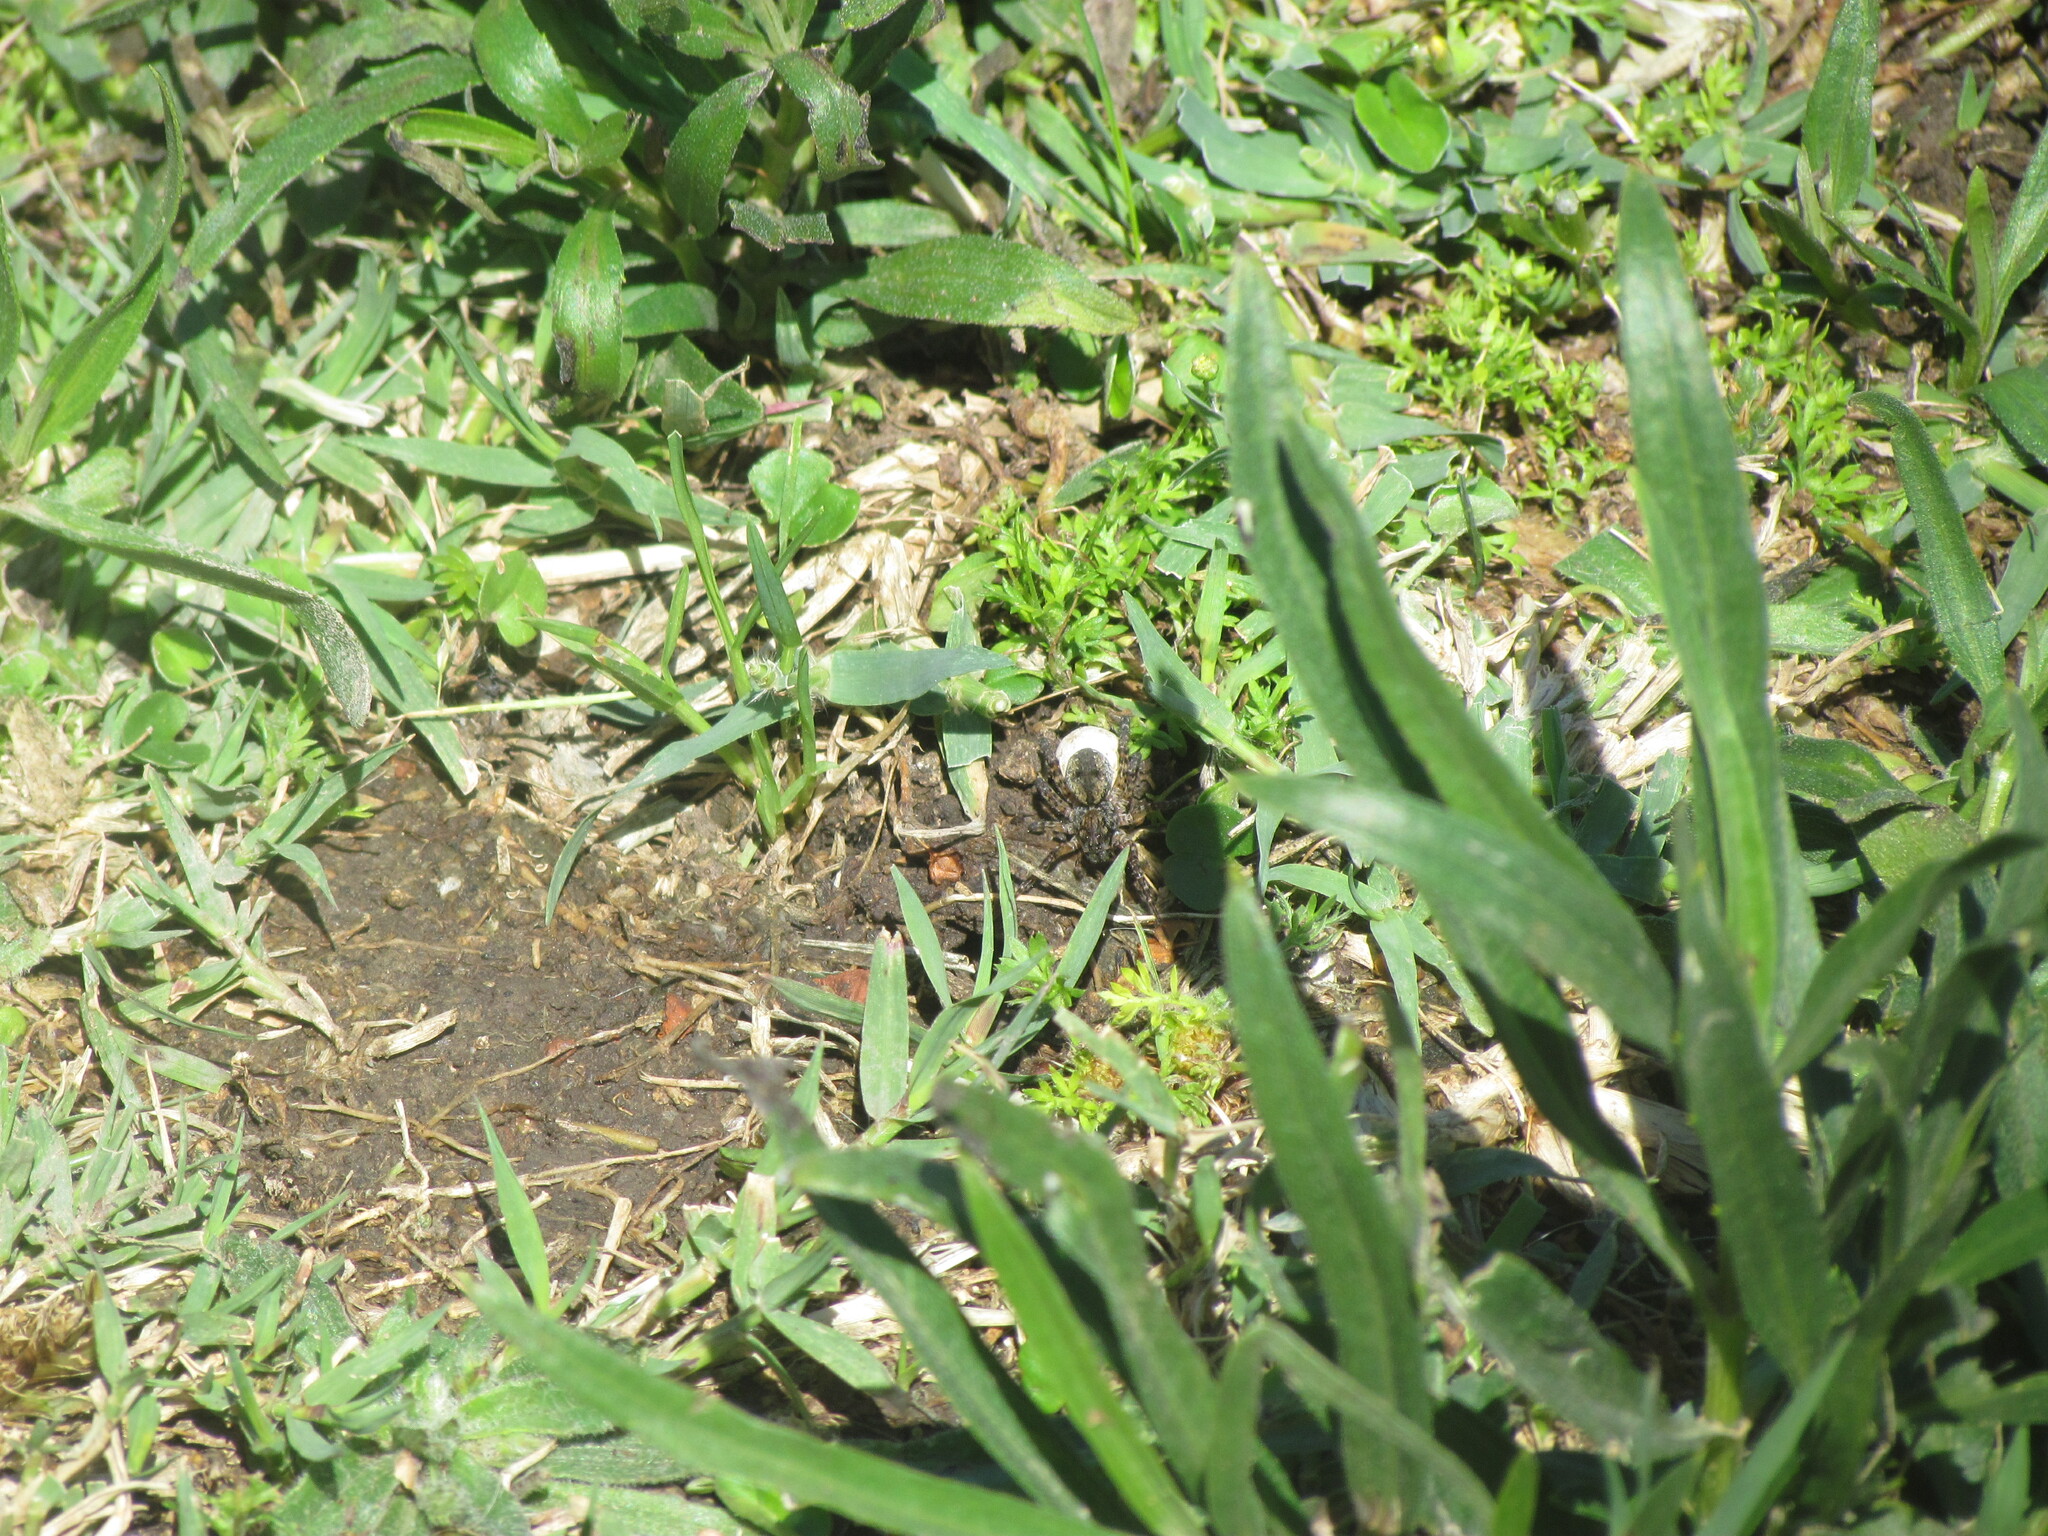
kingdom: Animalia
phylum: Arthropoda
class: Arachnida
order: Araneae
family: Lycosidae
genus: Paratrochosina
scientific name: Paratrochosina amica
